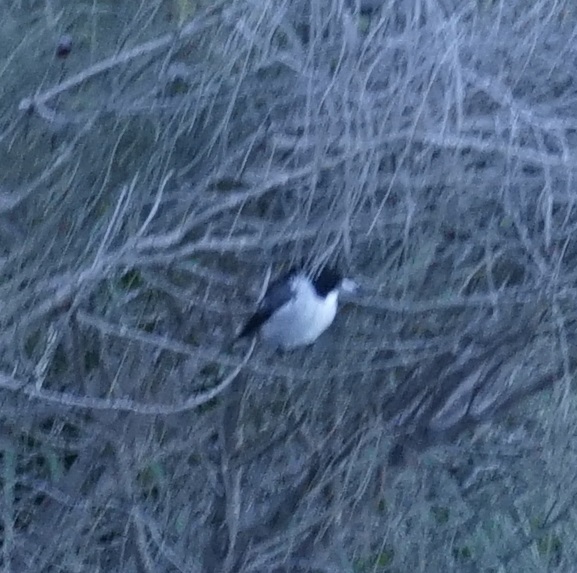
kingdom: Animalia
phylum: Chordata
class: Aves
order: Passeriformes
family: Cracticidae
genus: Cracticus
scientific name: Cracticus torquatus
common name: Grey butcherbird
